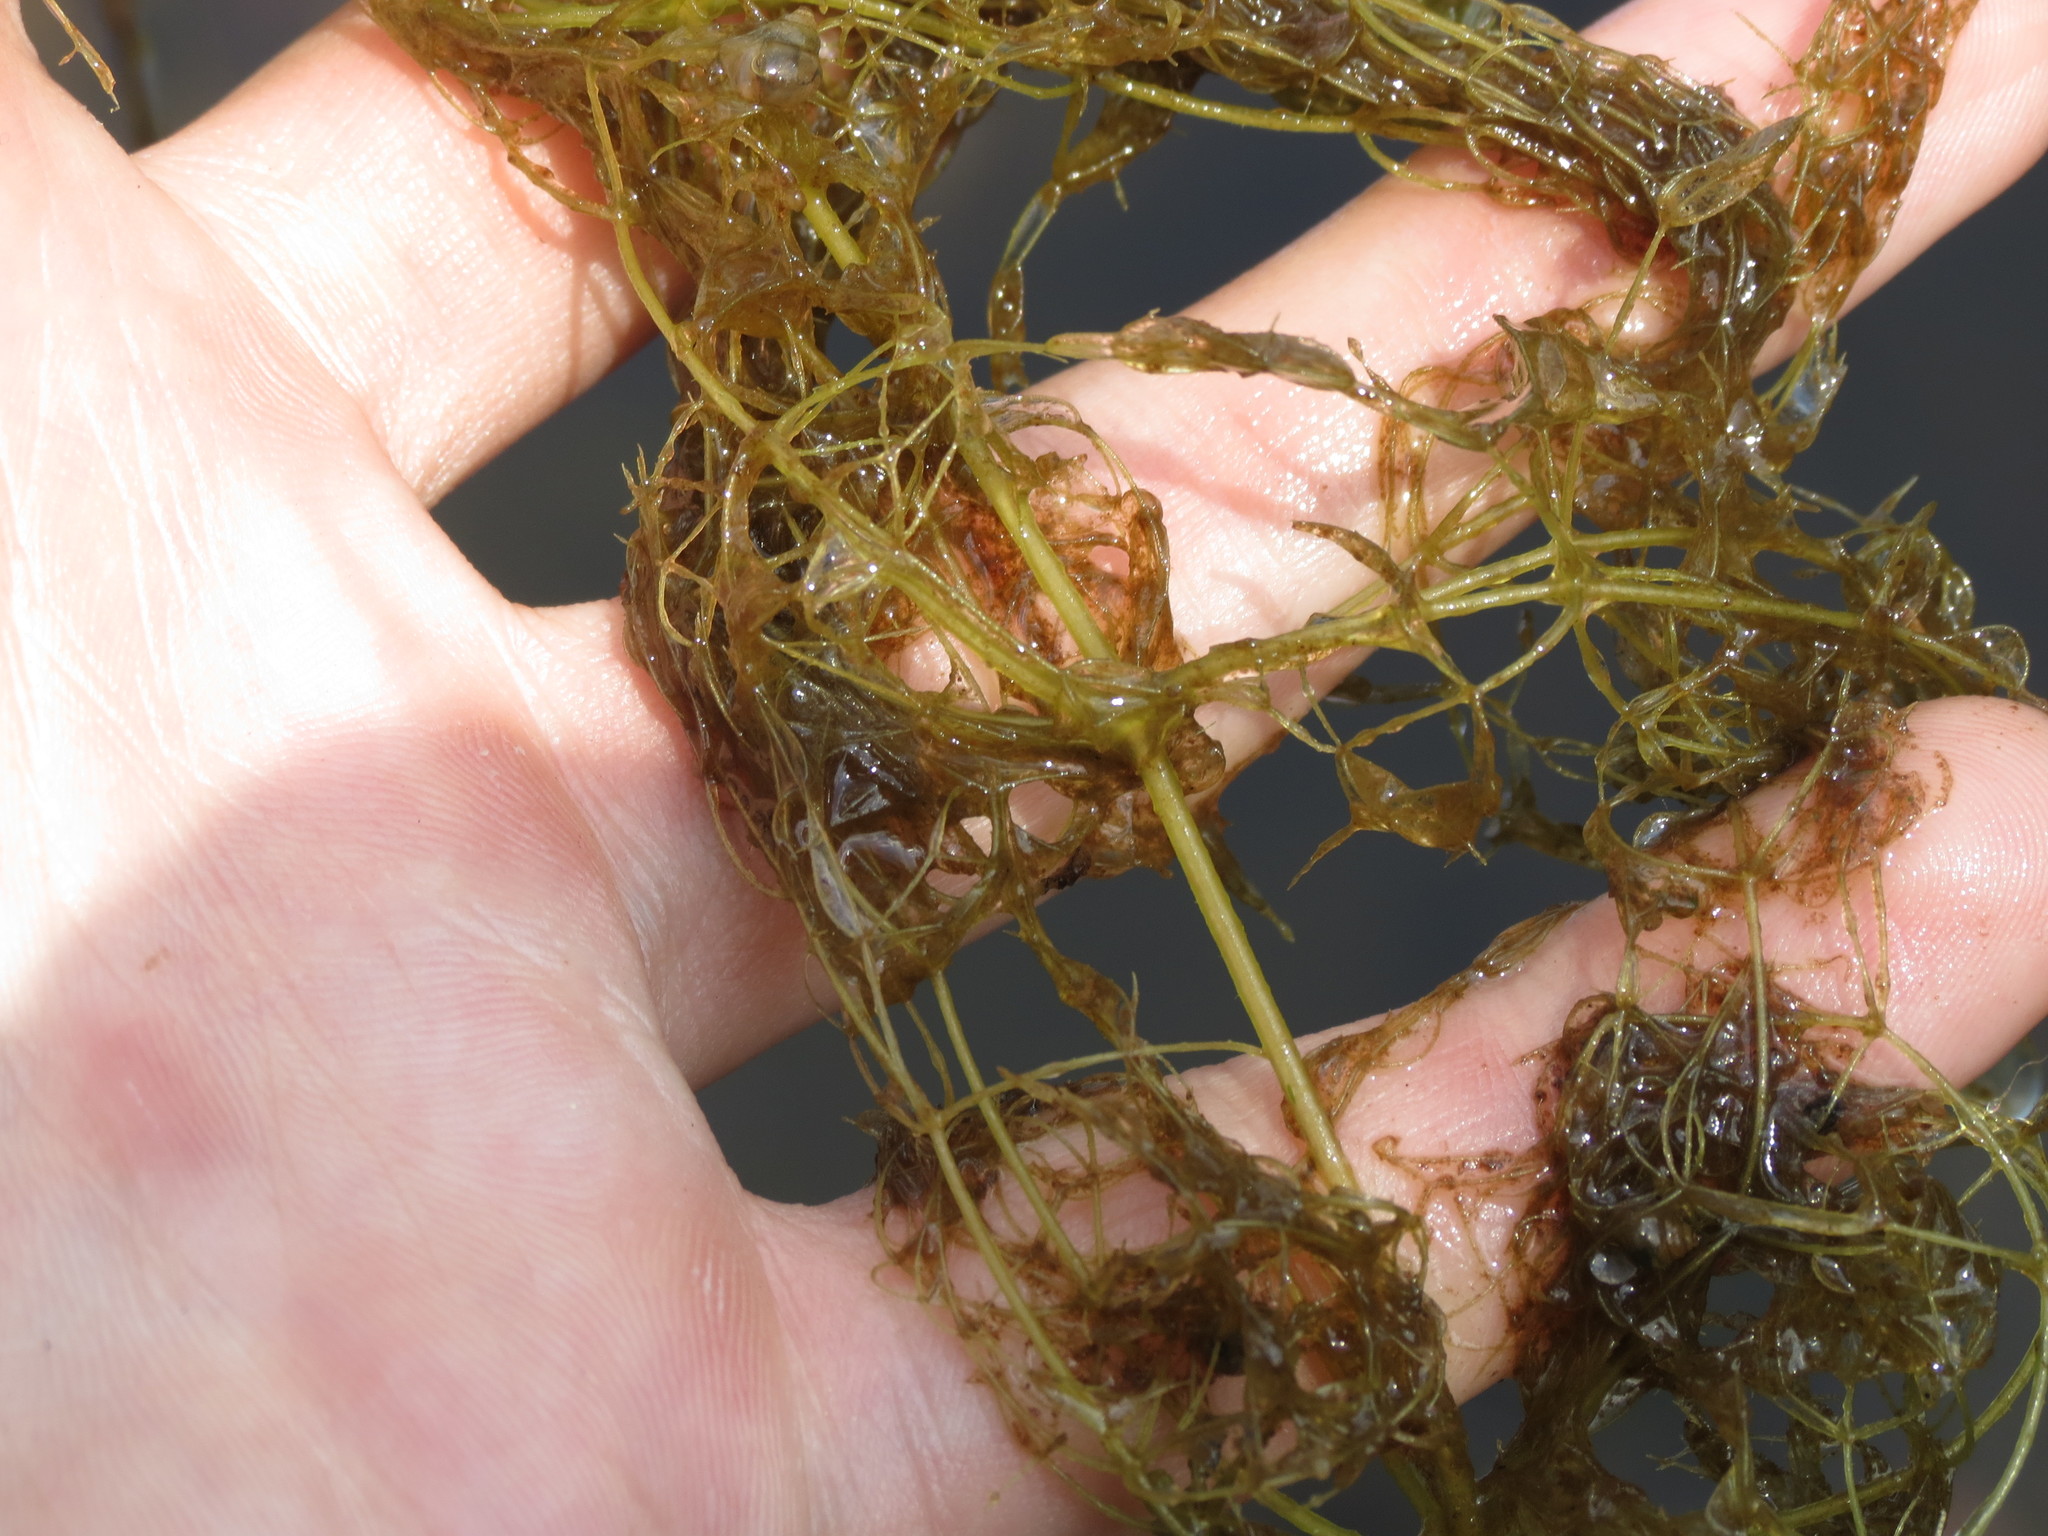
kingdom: Plantae
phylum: Tracheophyta
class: Magnoliopsida
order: Lamiales
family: Lentibulariaceae
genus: Utricularia
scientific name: Utricularia purpurea
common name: Eastern purple bladderwort
